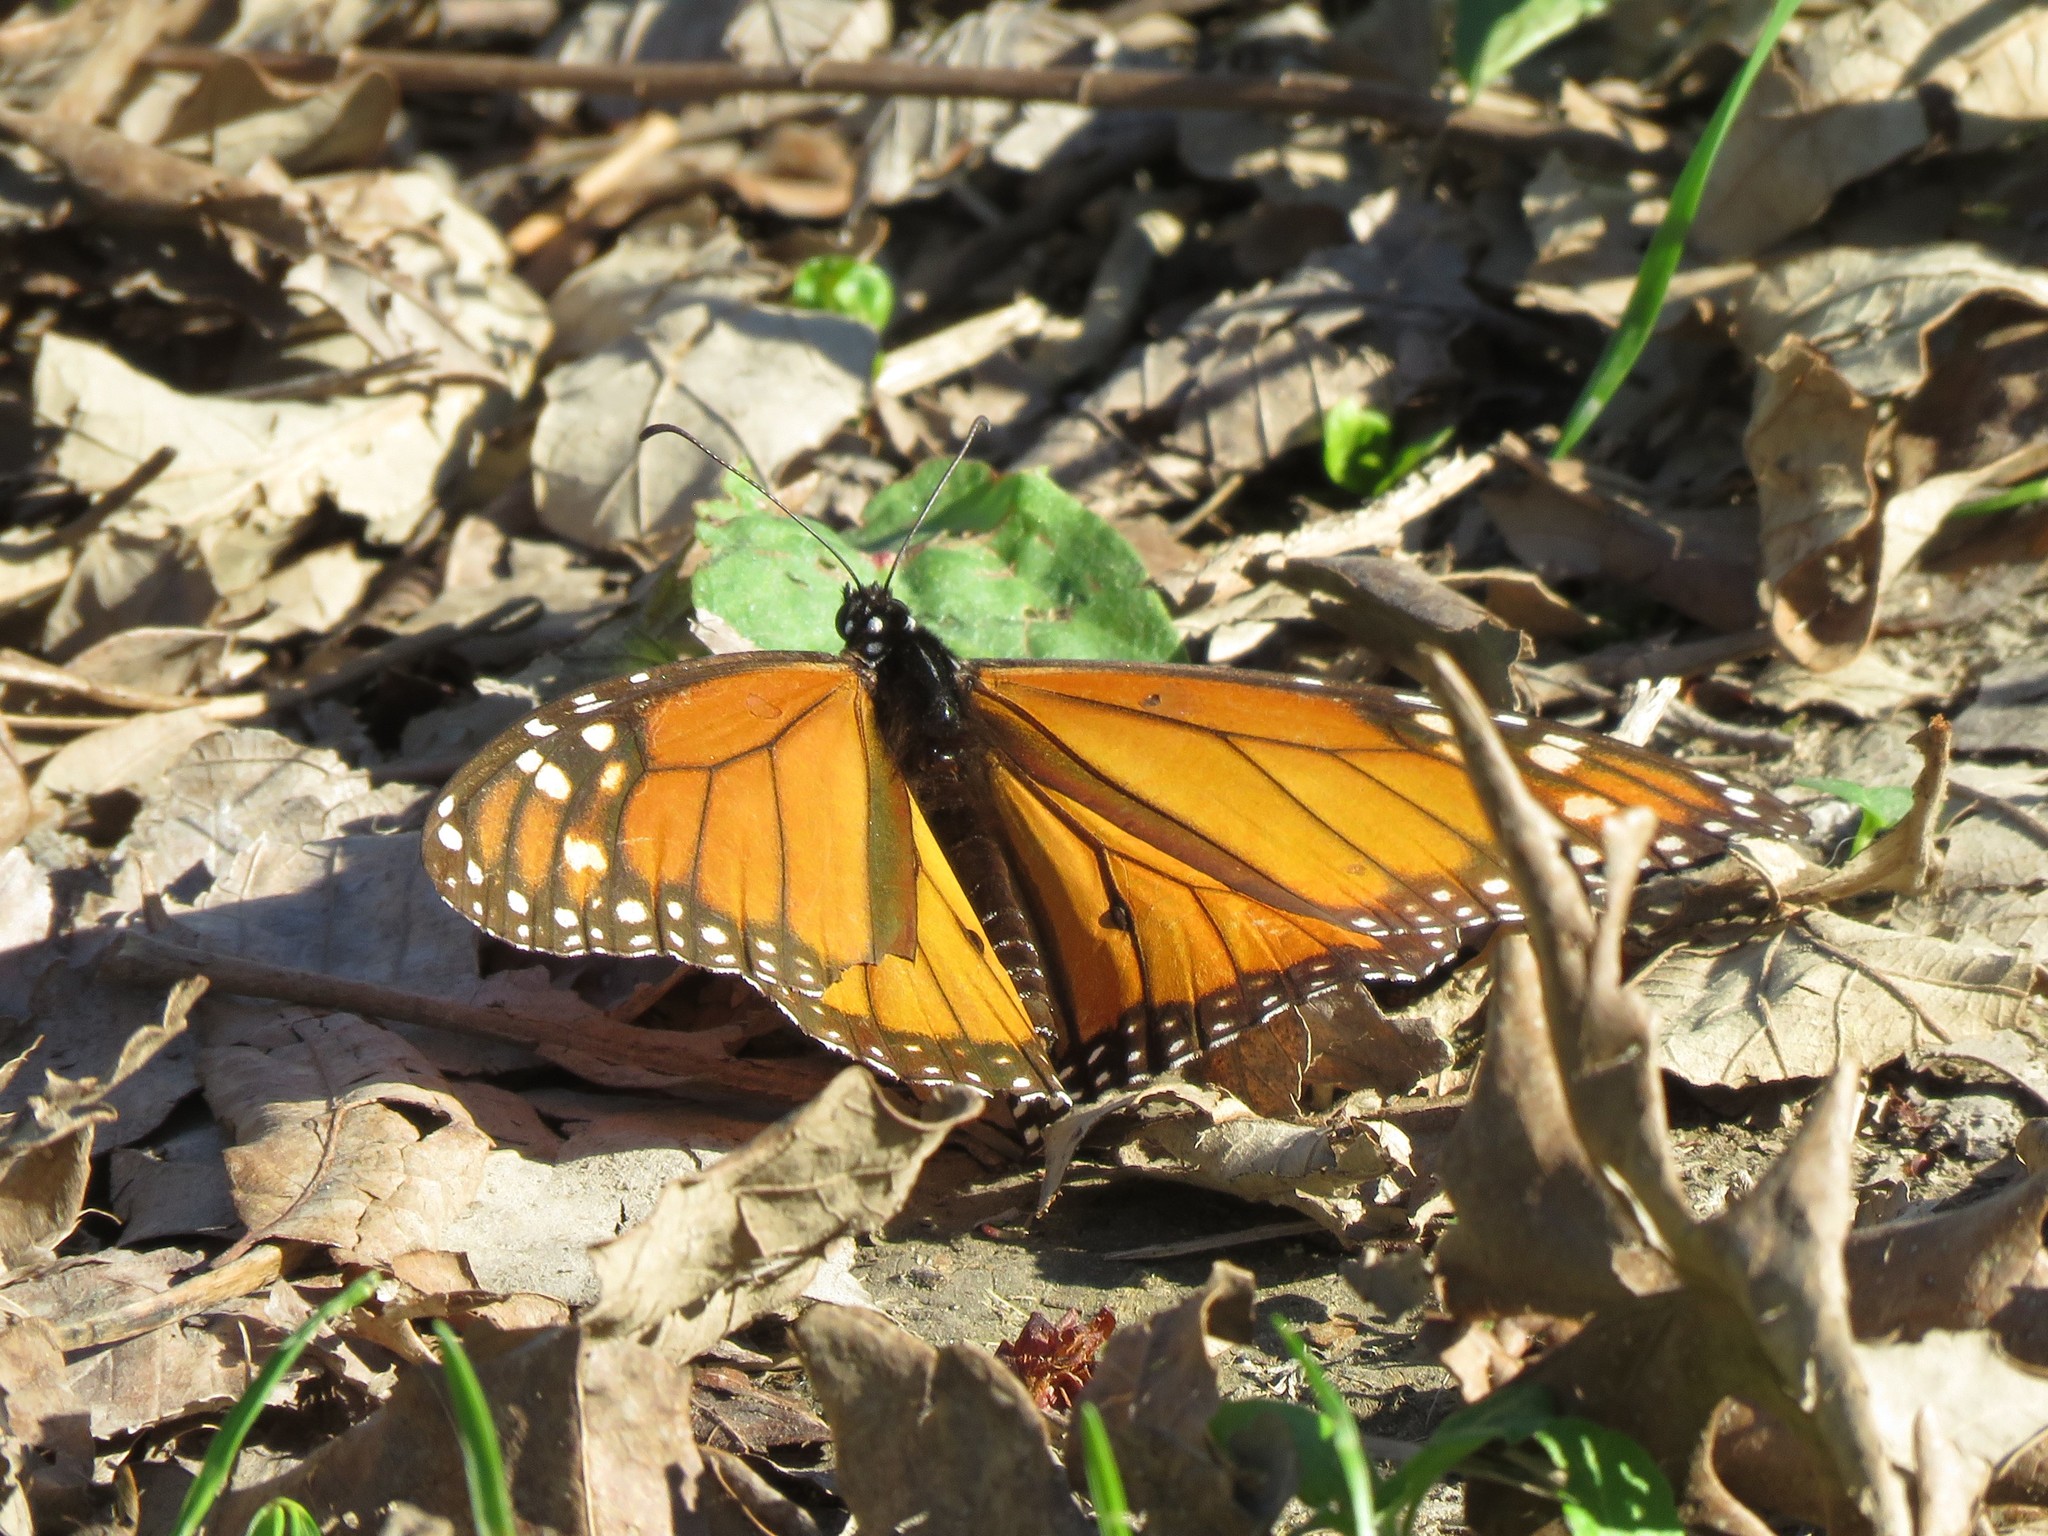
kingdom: Animalia
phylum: Arthropoda
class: Insecta
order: Lepidoptera
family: Nymphalidae
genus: Danaus
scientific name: Danaus plexippus
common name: Monarch
